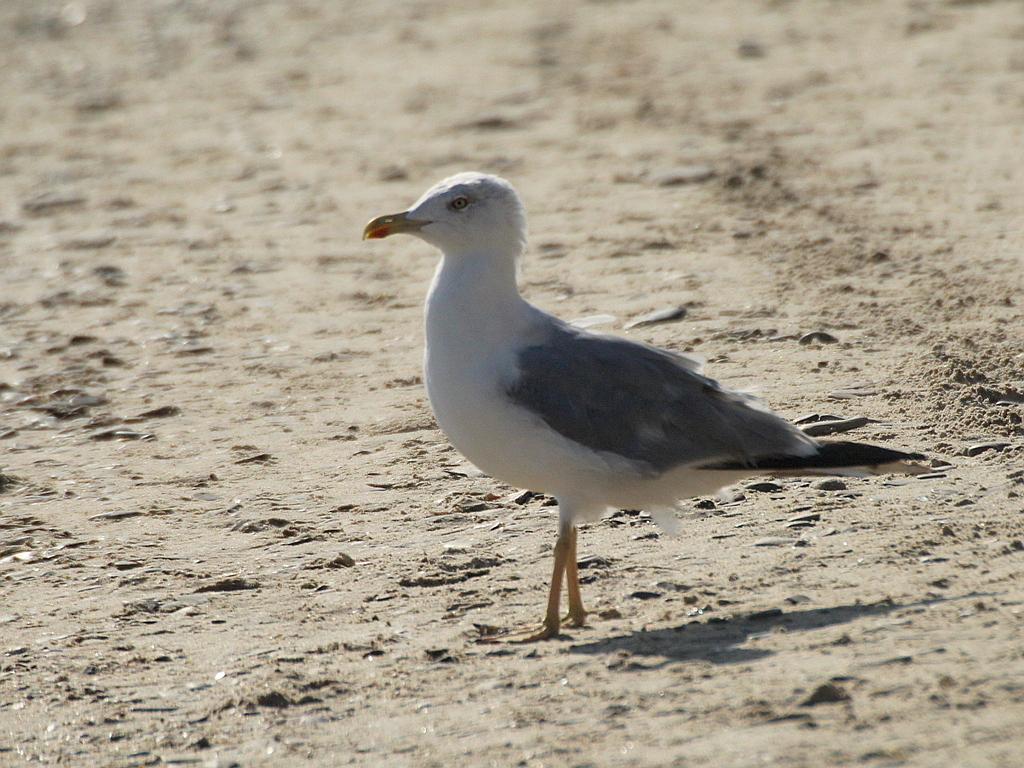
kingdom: Animalia
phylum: Chordata
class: Aves
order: Charadriiformes
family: Laridae
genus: Larus
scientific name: Larus michahellis
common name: Yellow-legged gull
